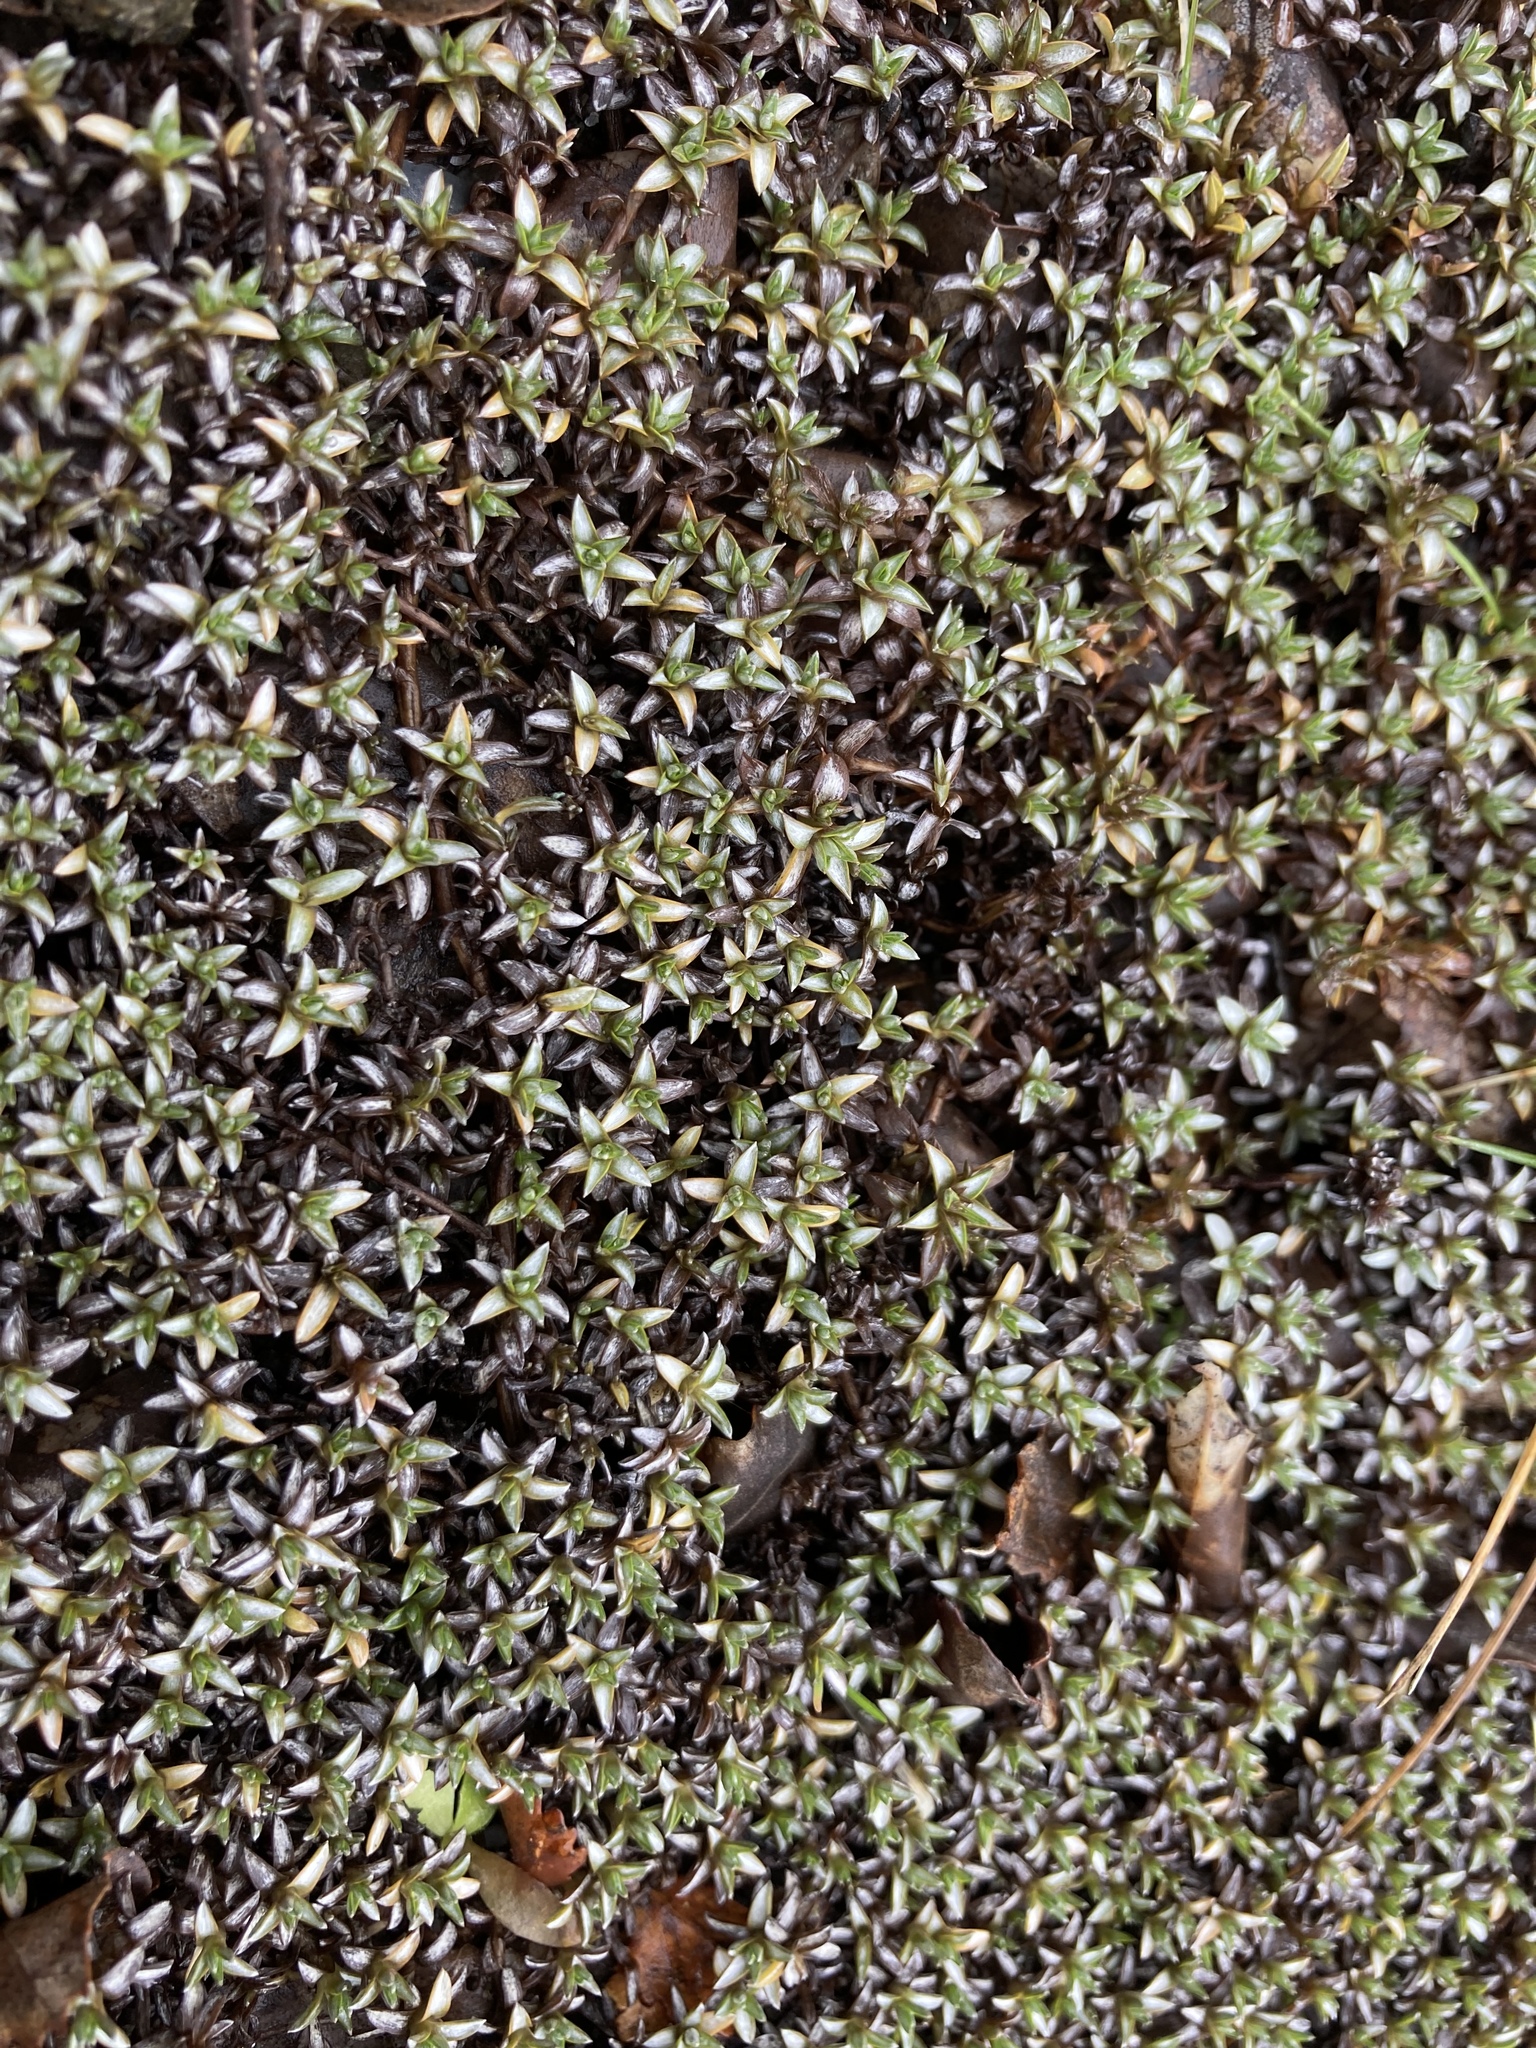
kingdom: Plantae
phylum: Tracheophyta
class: Magnoliopsida
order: Asterales
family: Asteraceae
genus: Raoulia
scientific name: Raoulia tenuicaulis
